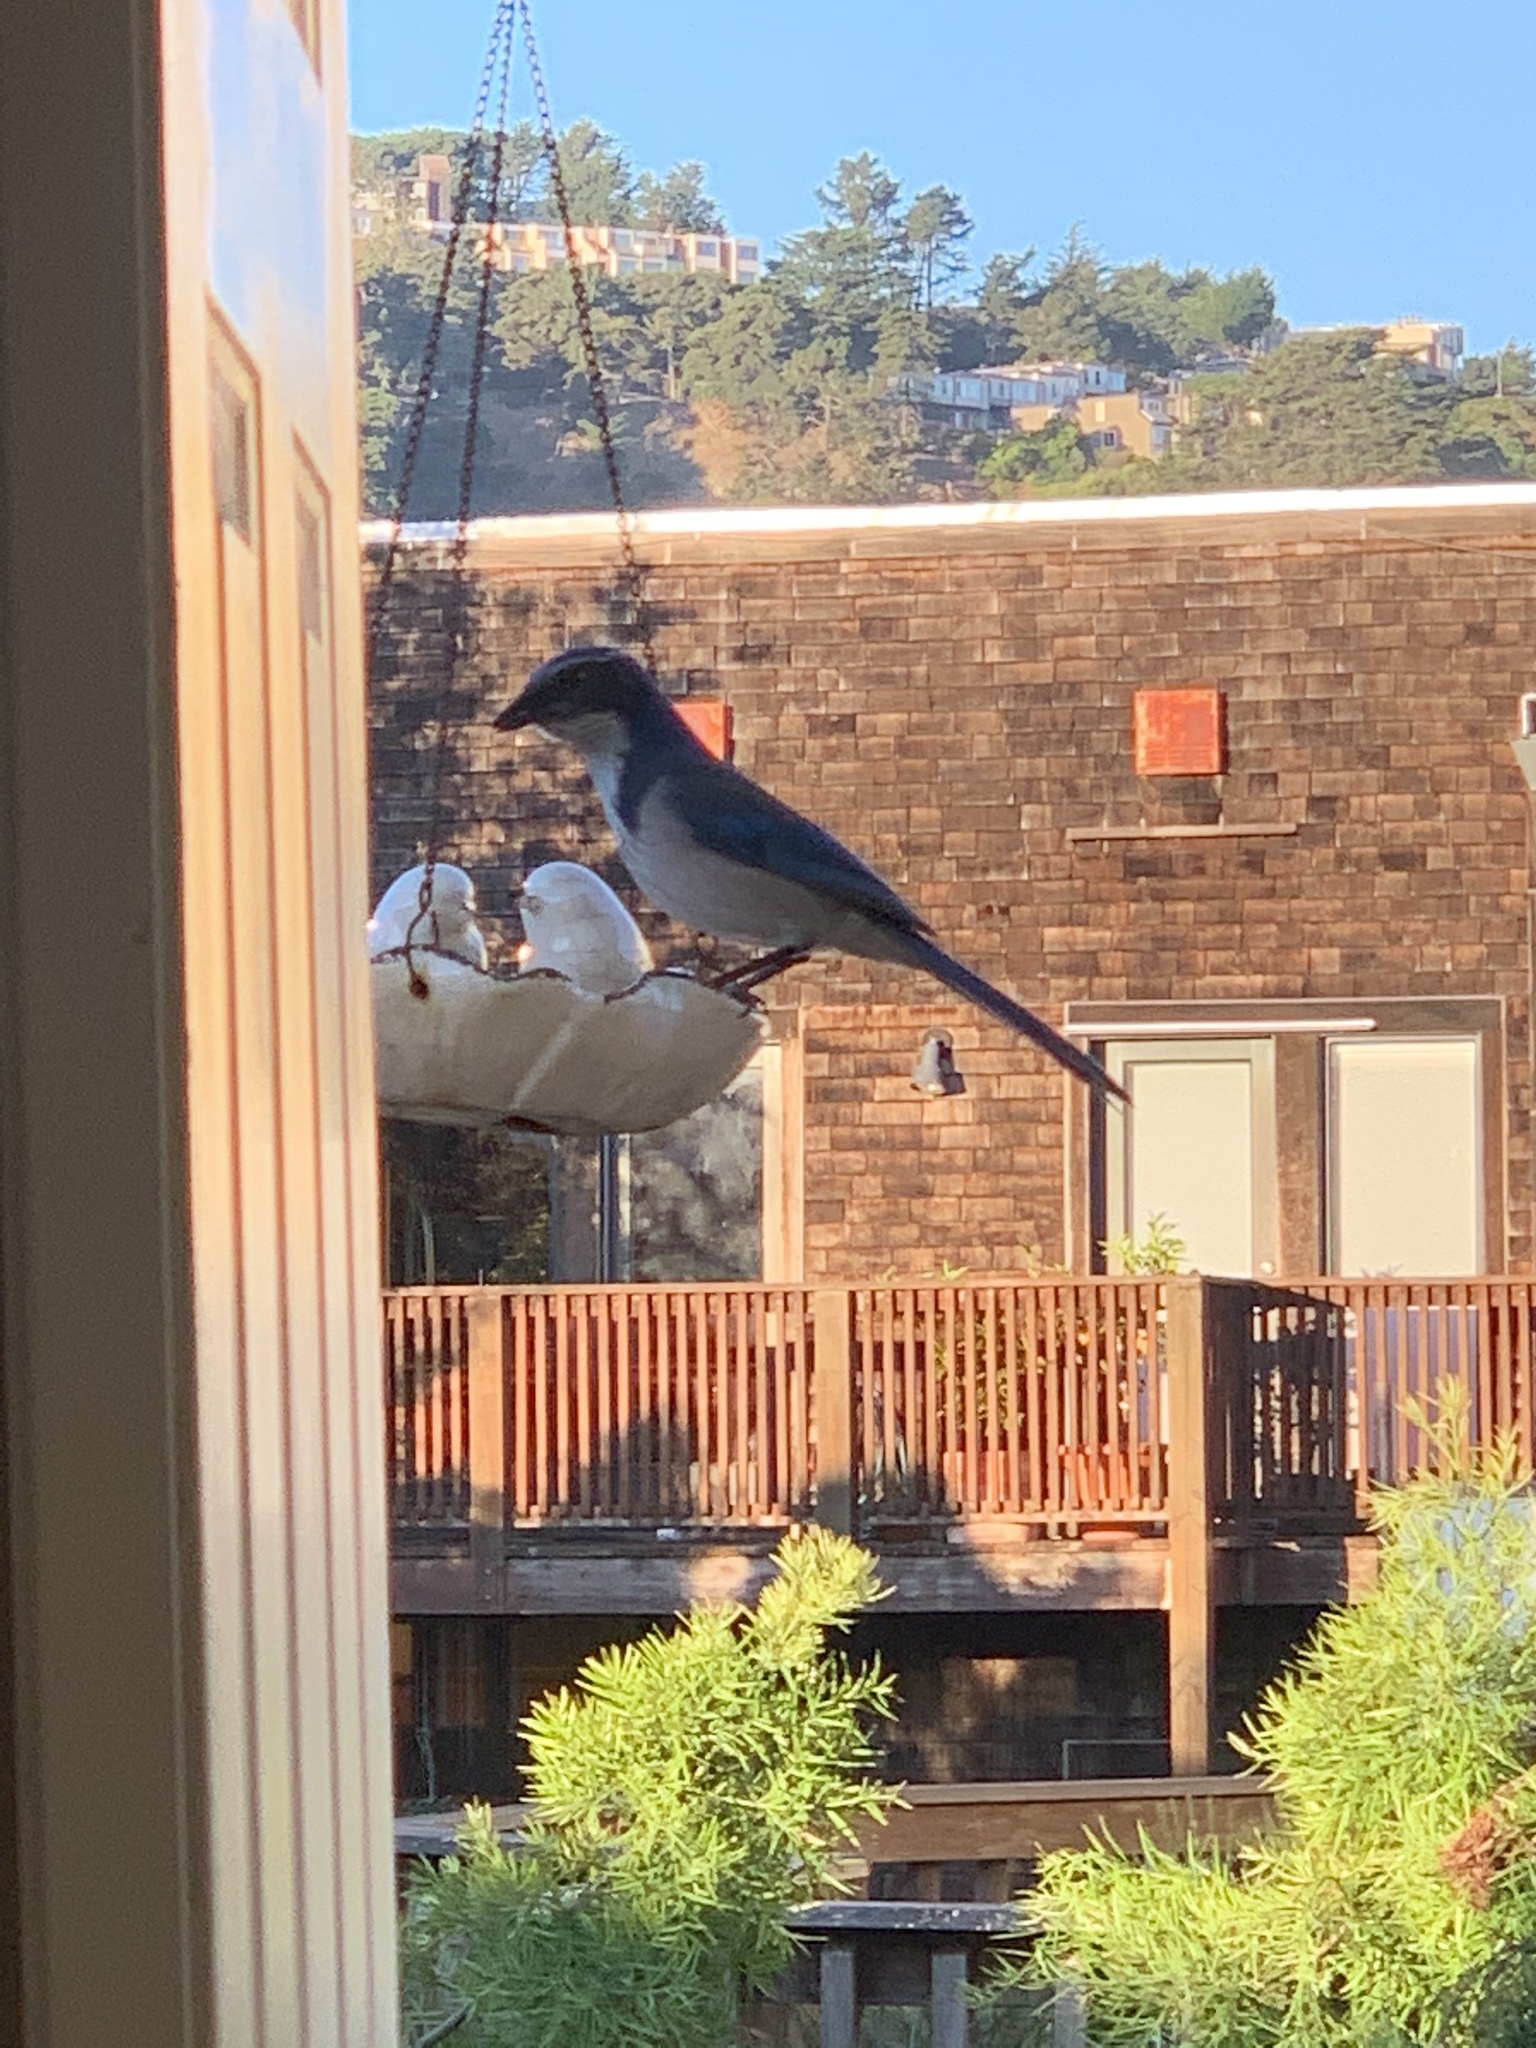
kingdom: Animalia
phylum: Chordata
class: Aves
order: Passeriformes
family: Corvidae
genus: Aphelocoma
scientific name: Aphelocoma californica
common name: California scrub-jay
